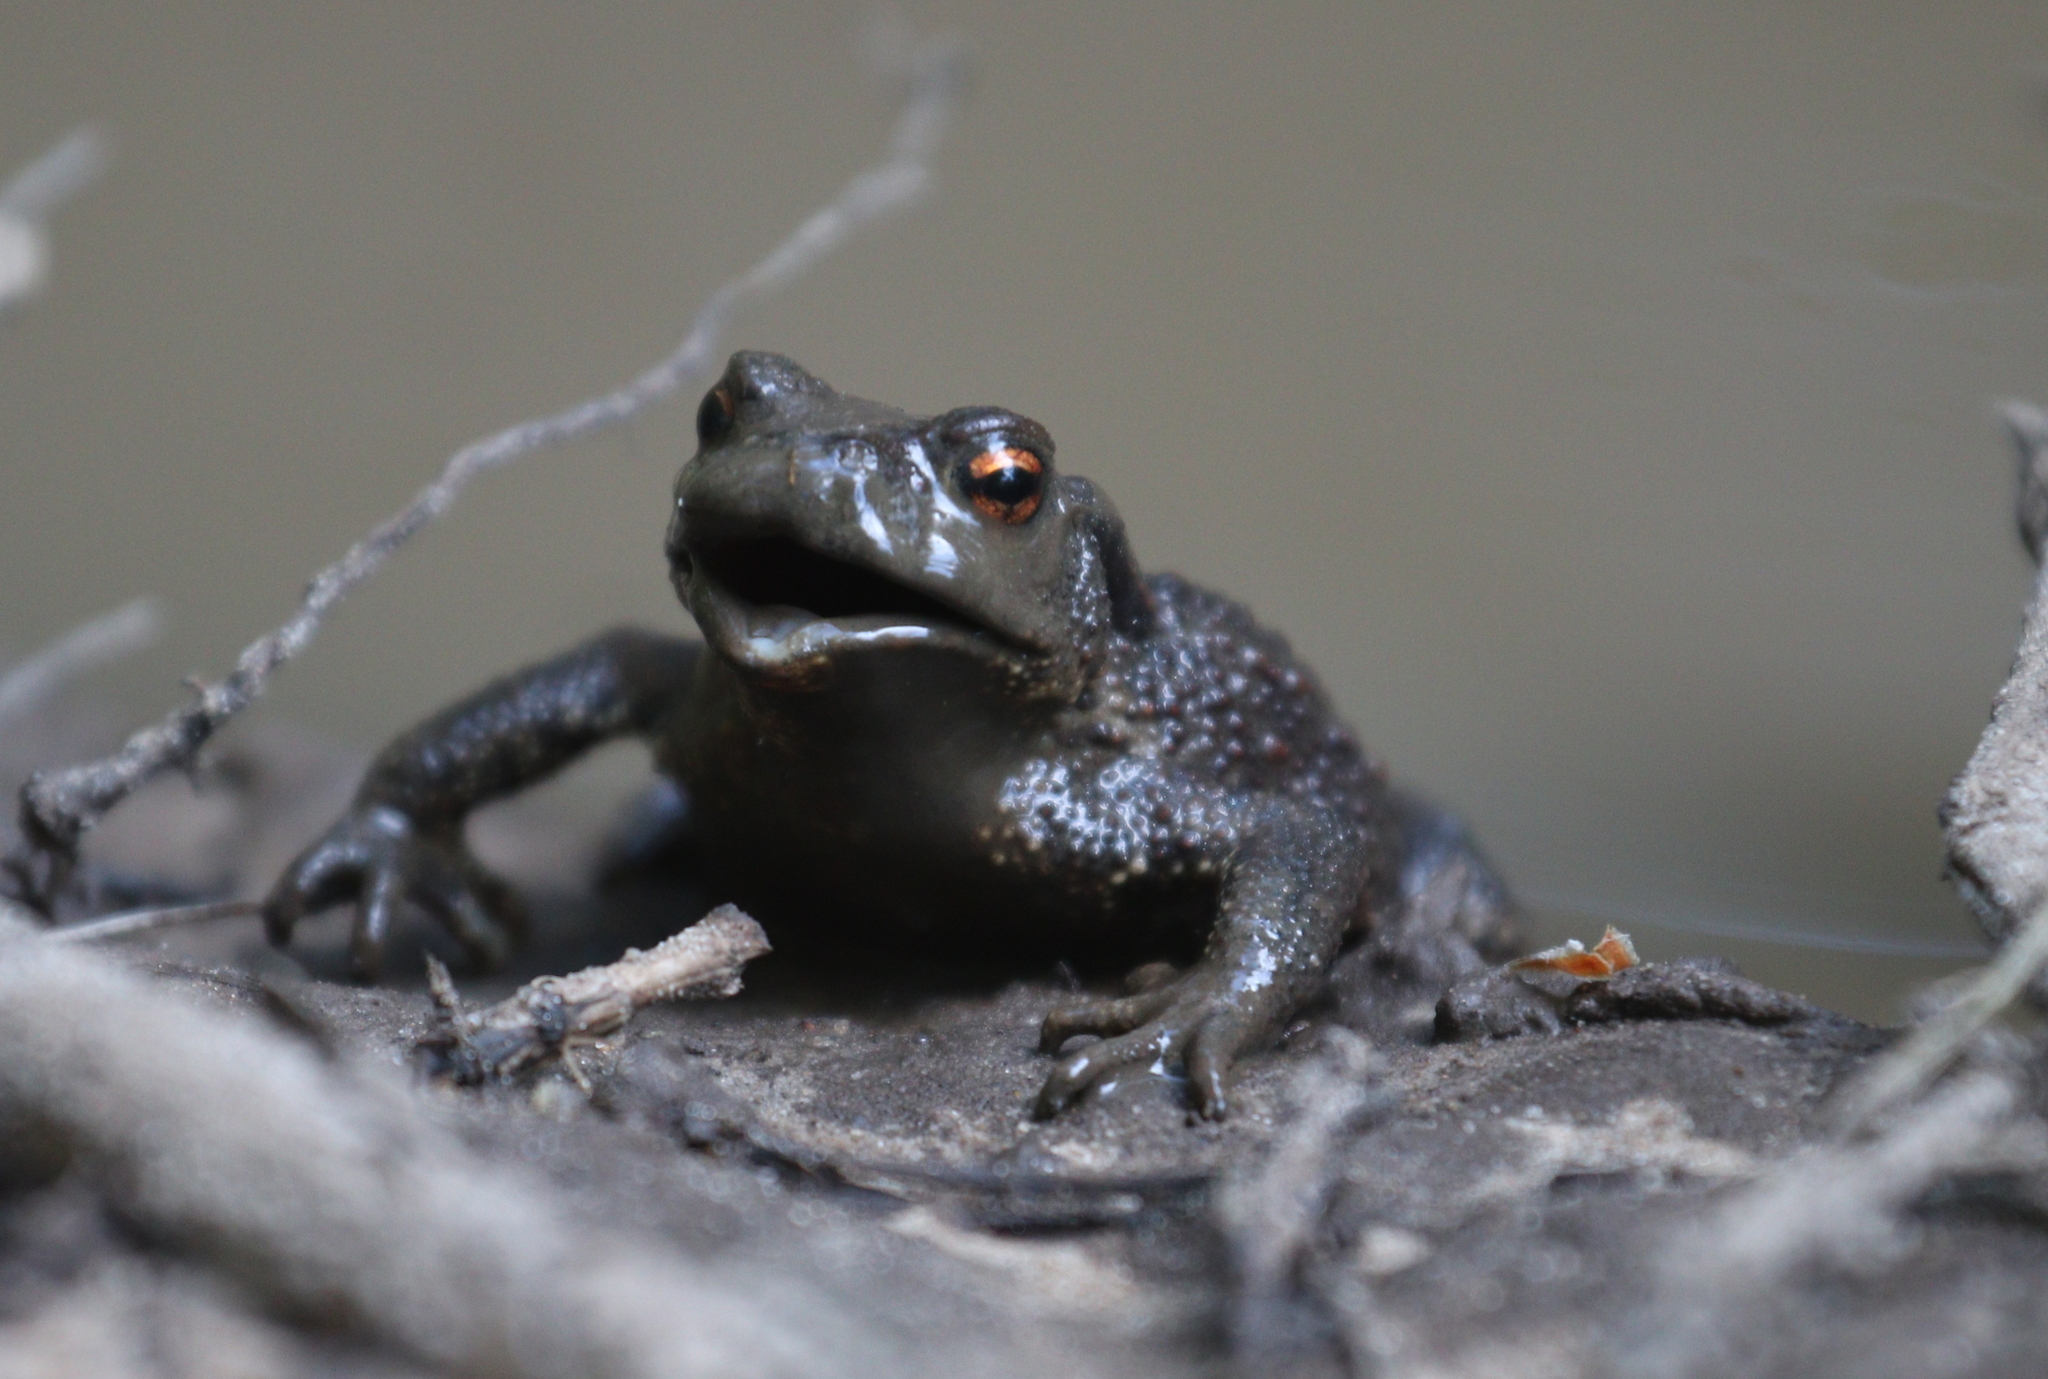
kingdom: Animalia
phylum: Chordata
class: Amphibia
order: Anura
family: Bufonidae
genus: Bufo
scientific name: Bufo bufo
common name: Common toad
